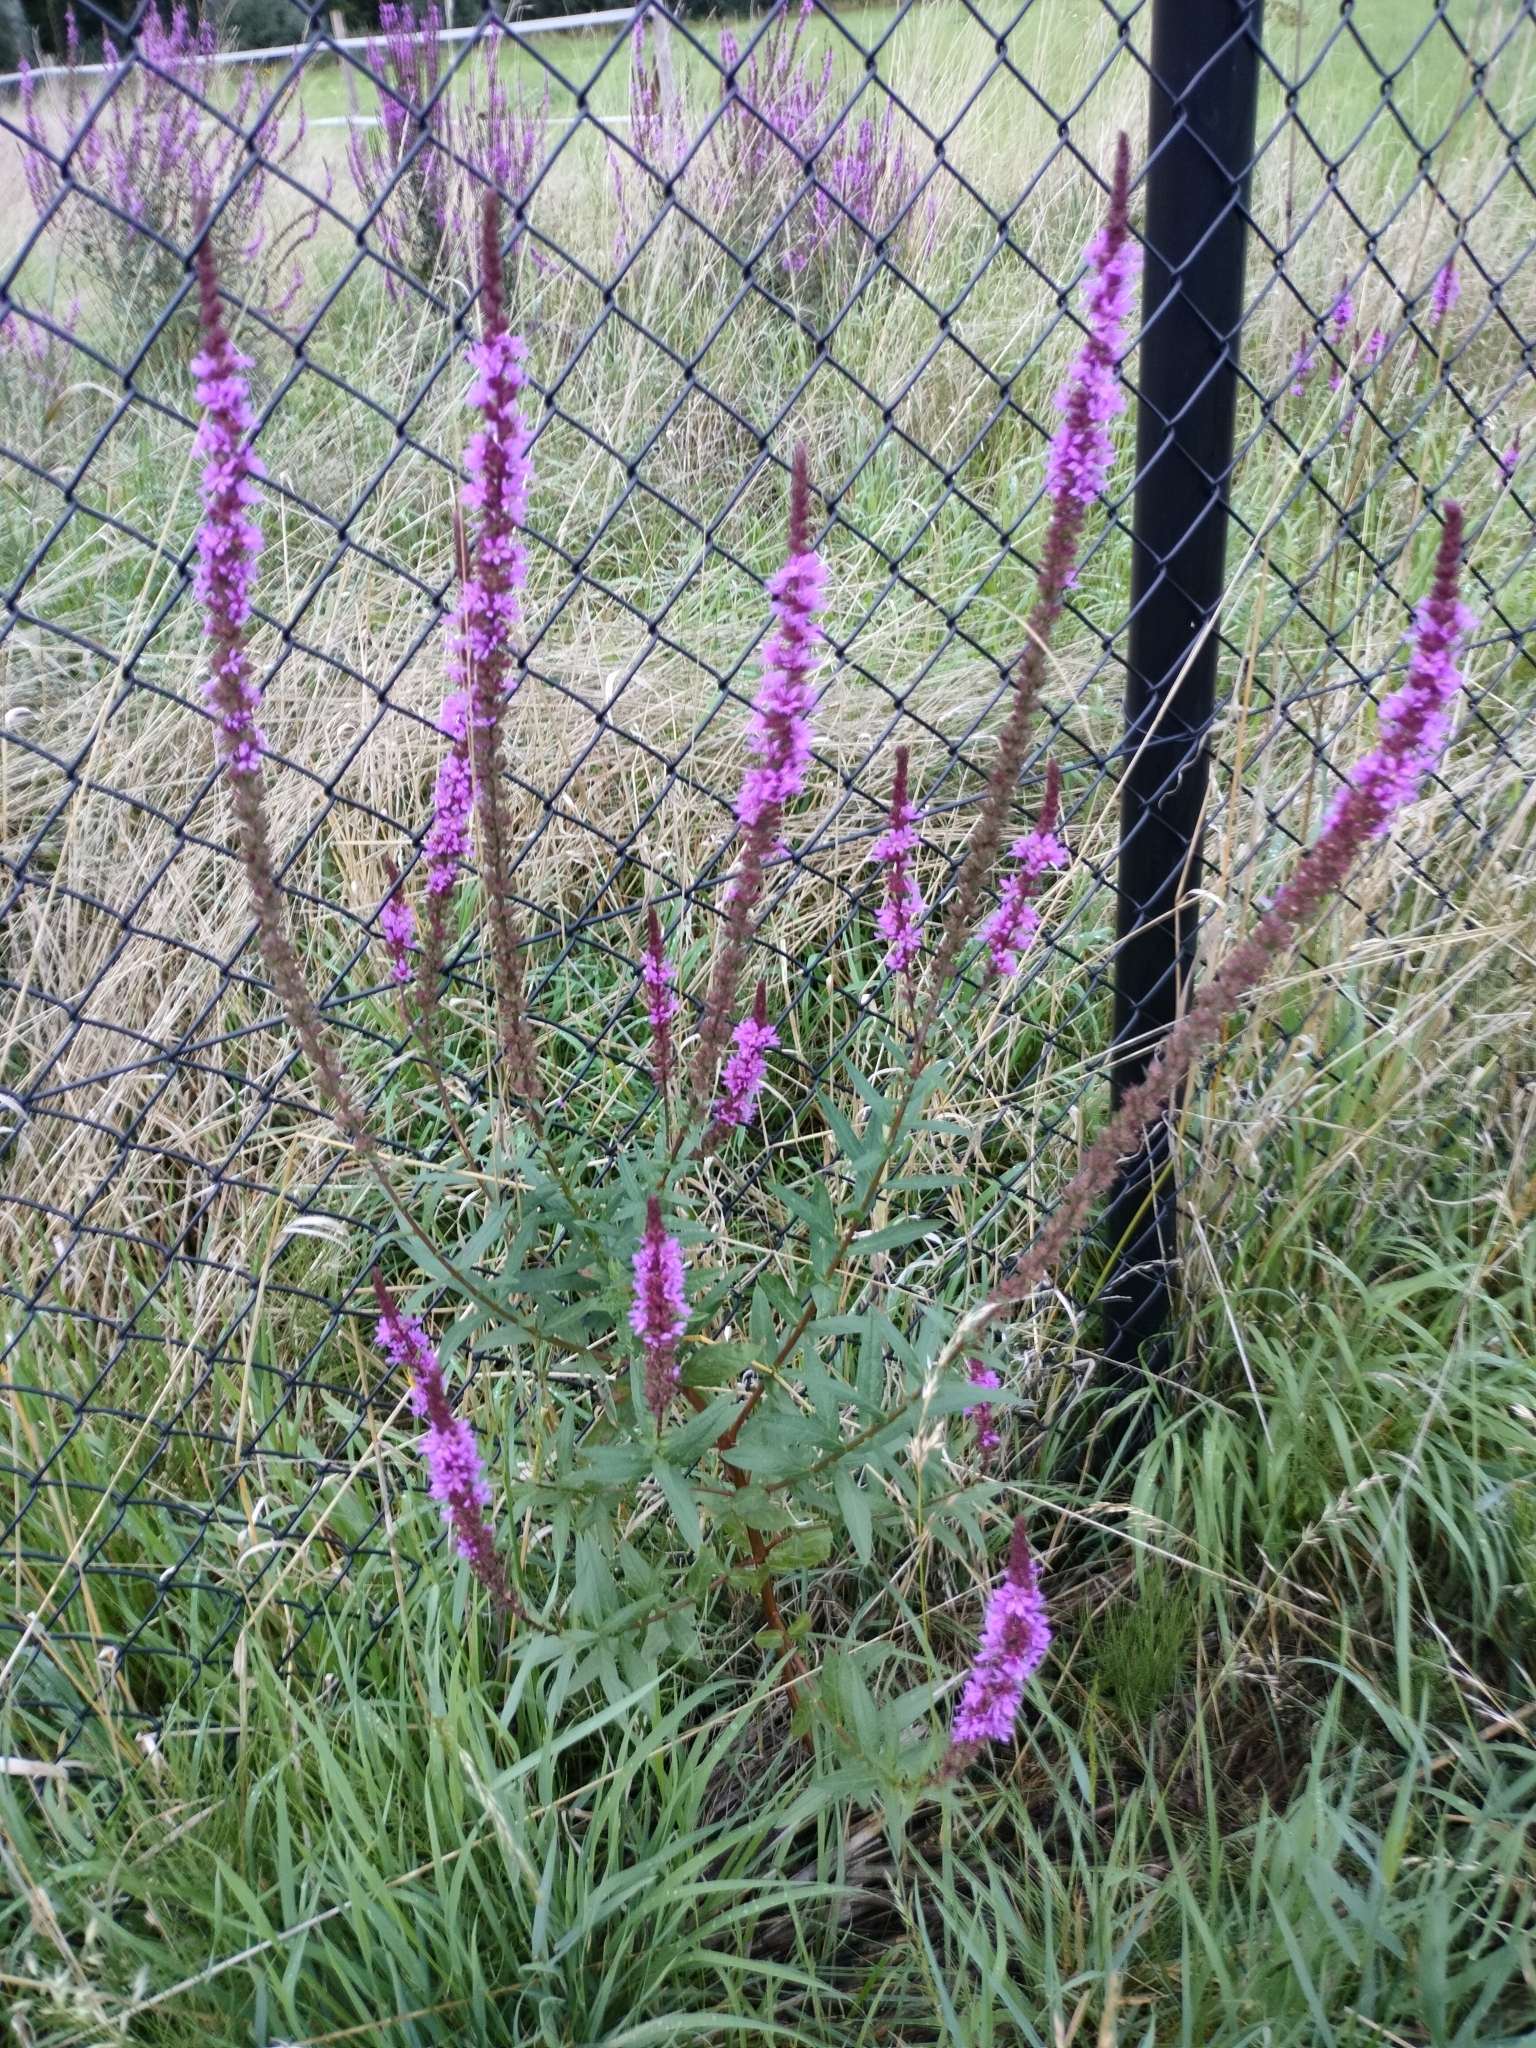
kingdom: Plantae
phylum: Tracheophyta
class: Magnoliopsida
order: Myrtales
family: Lythraceae
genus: Lythrum
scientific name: Lythrum salicaria
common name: Purple loosestrife
